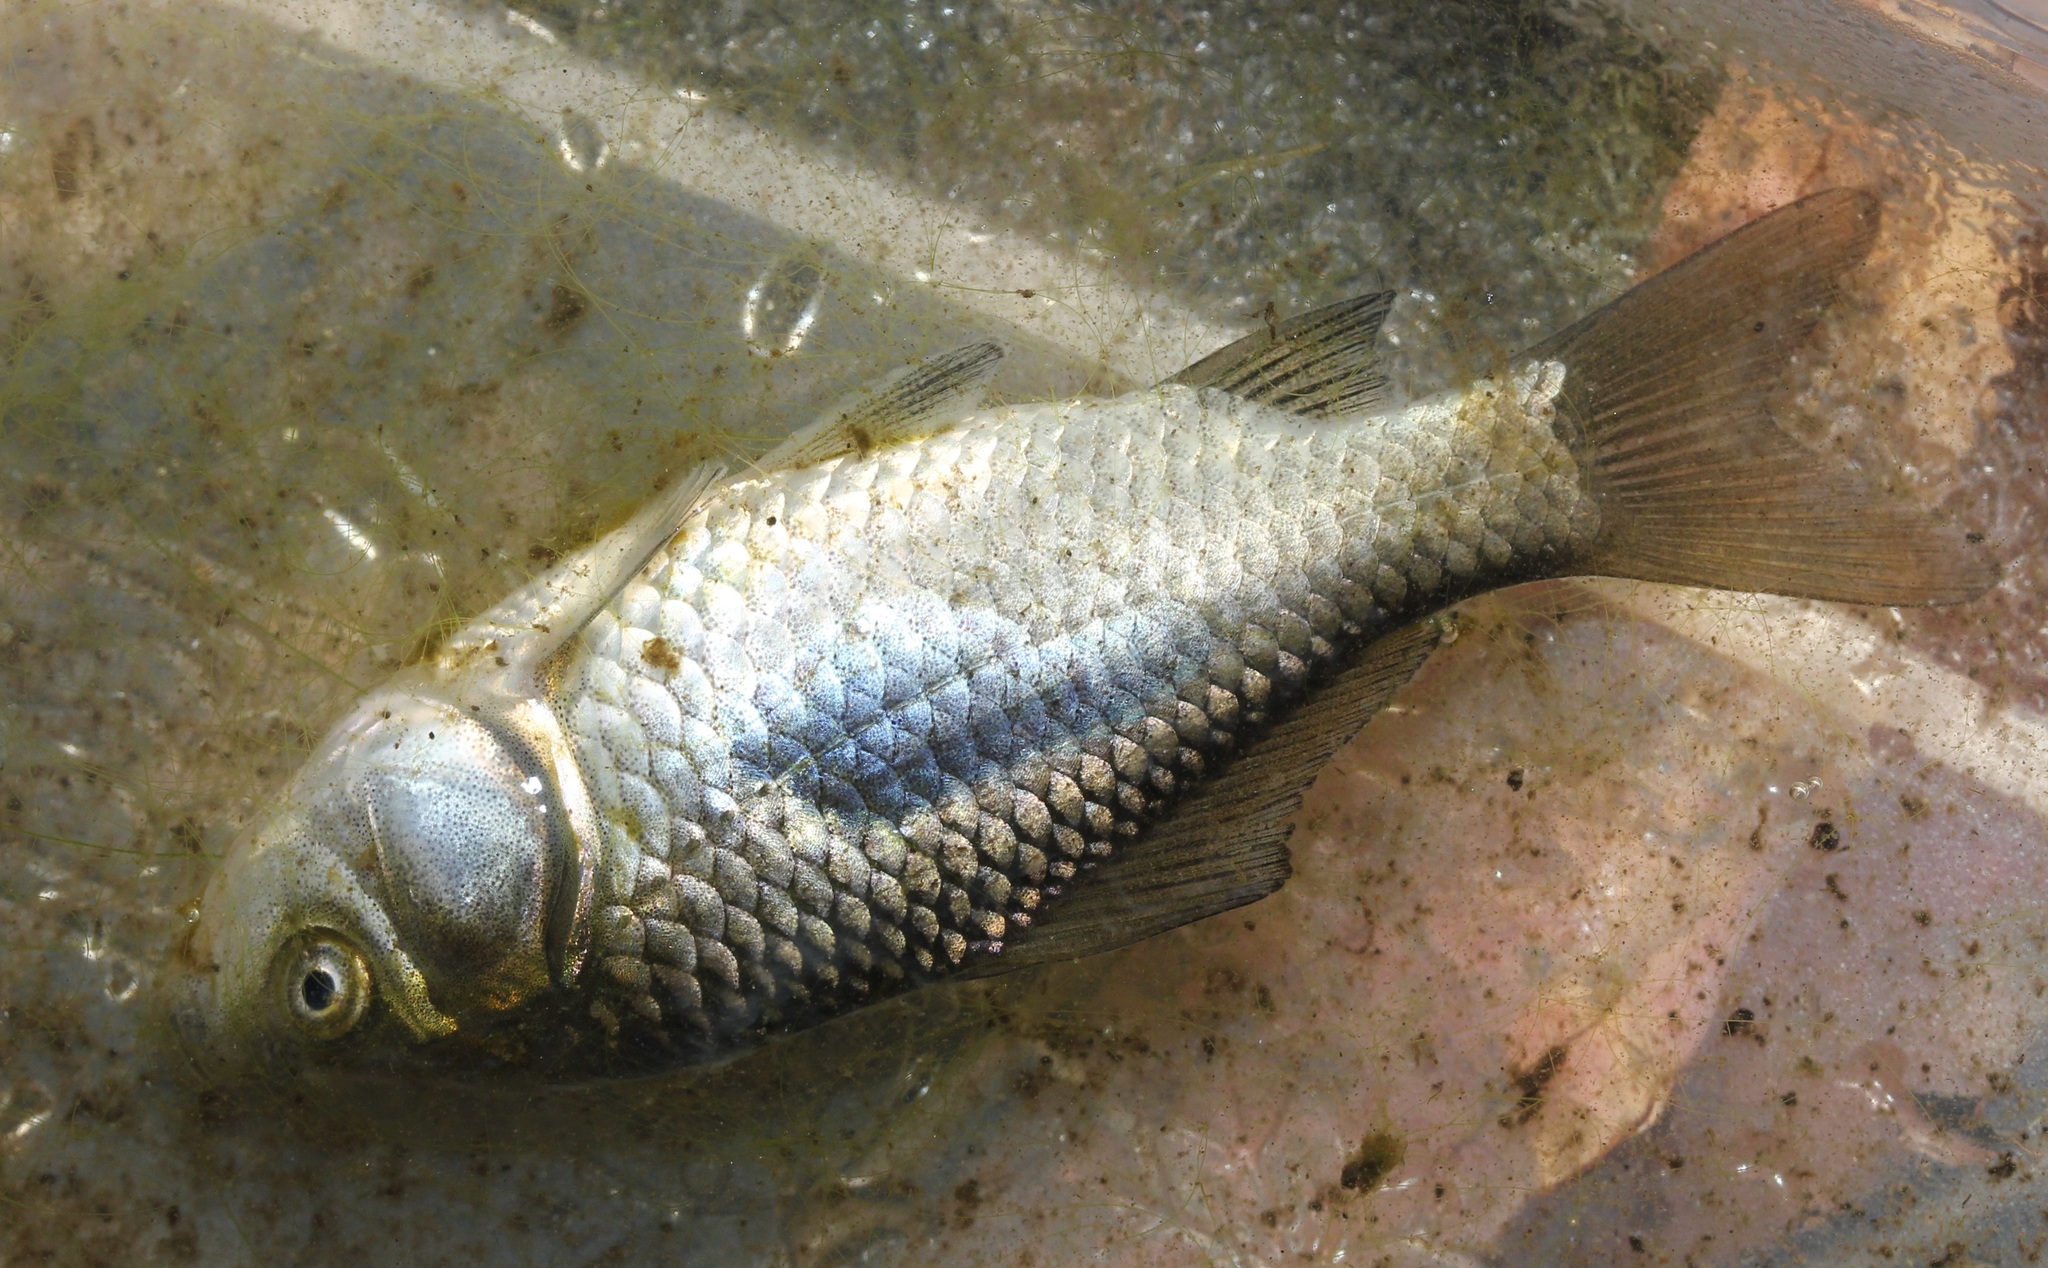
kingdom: Animalia
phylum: Chordata
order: Cypriniformes
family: Cyprinidae
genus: Carassius
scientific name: Carassius auratus
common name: Goldfish
